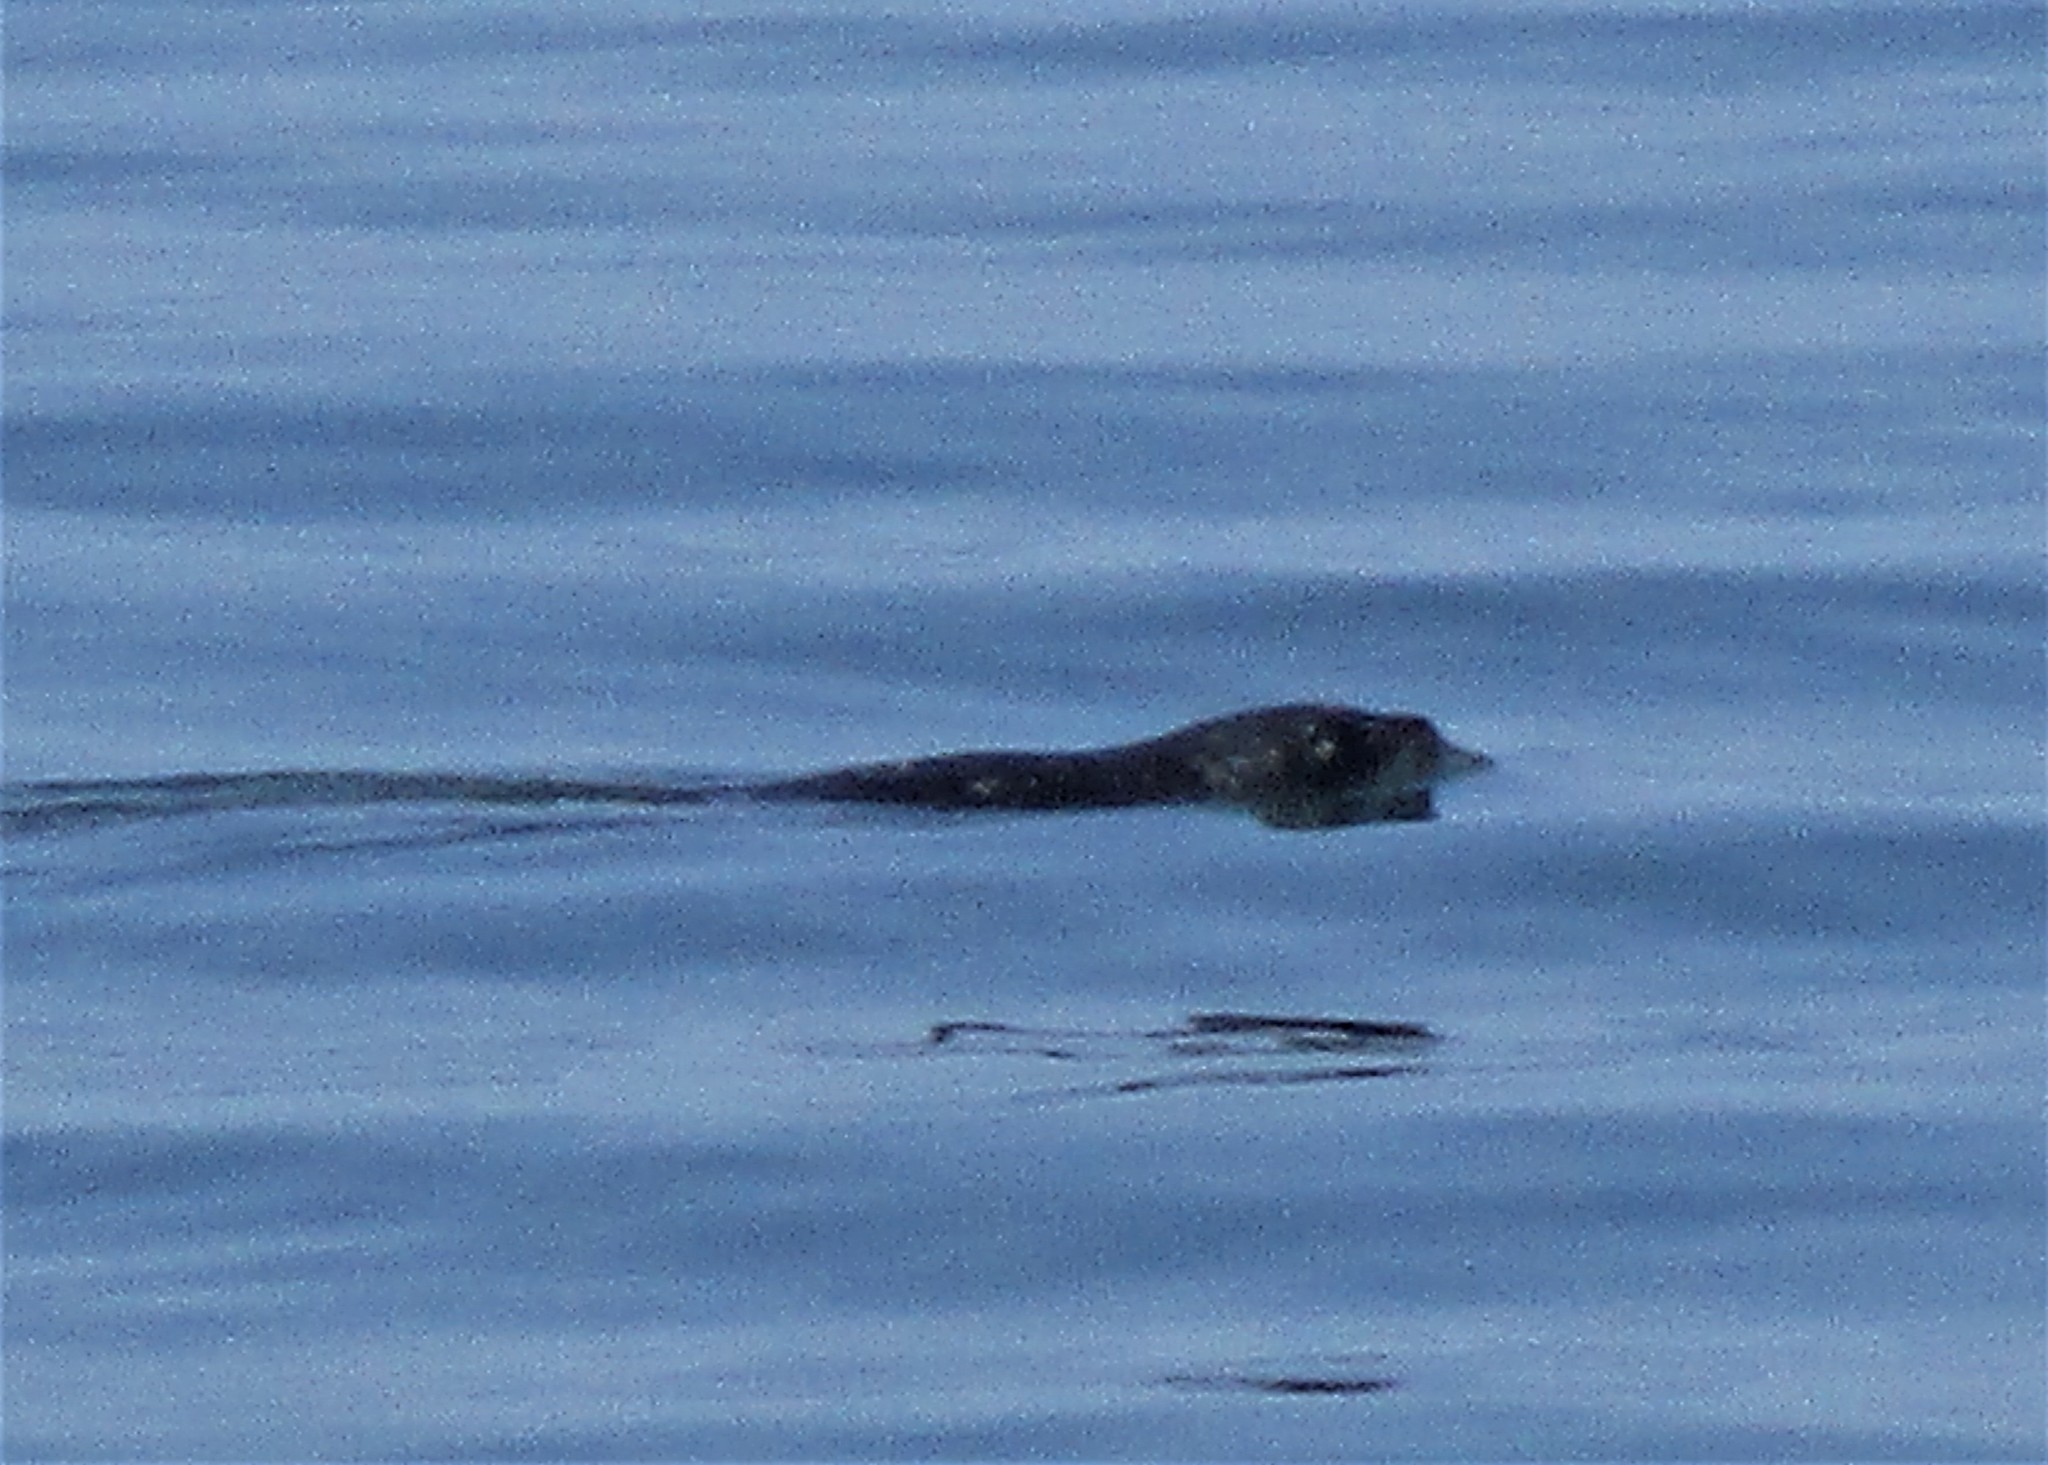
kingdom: Animalia
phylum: Chordata
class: Mammalia
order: Carnivora
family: Phocidae
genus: Phoca
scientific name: Phoca vitulina
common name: Harbor seal
